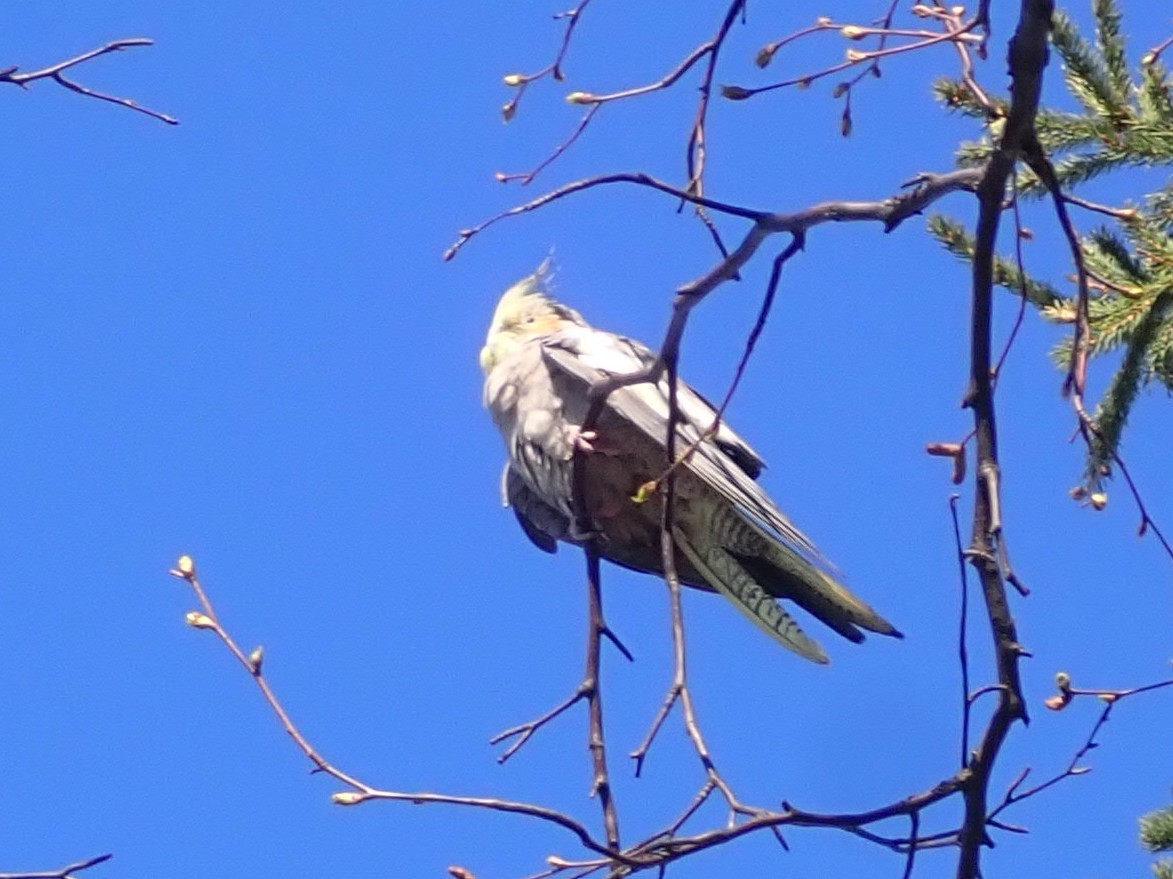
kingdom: Animalia
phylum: Chordata
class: Aves
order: Psittaciformes
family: Psittacidae
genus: Nymphicus
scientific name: Nymphicus hollandicus
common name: Cockatiel
